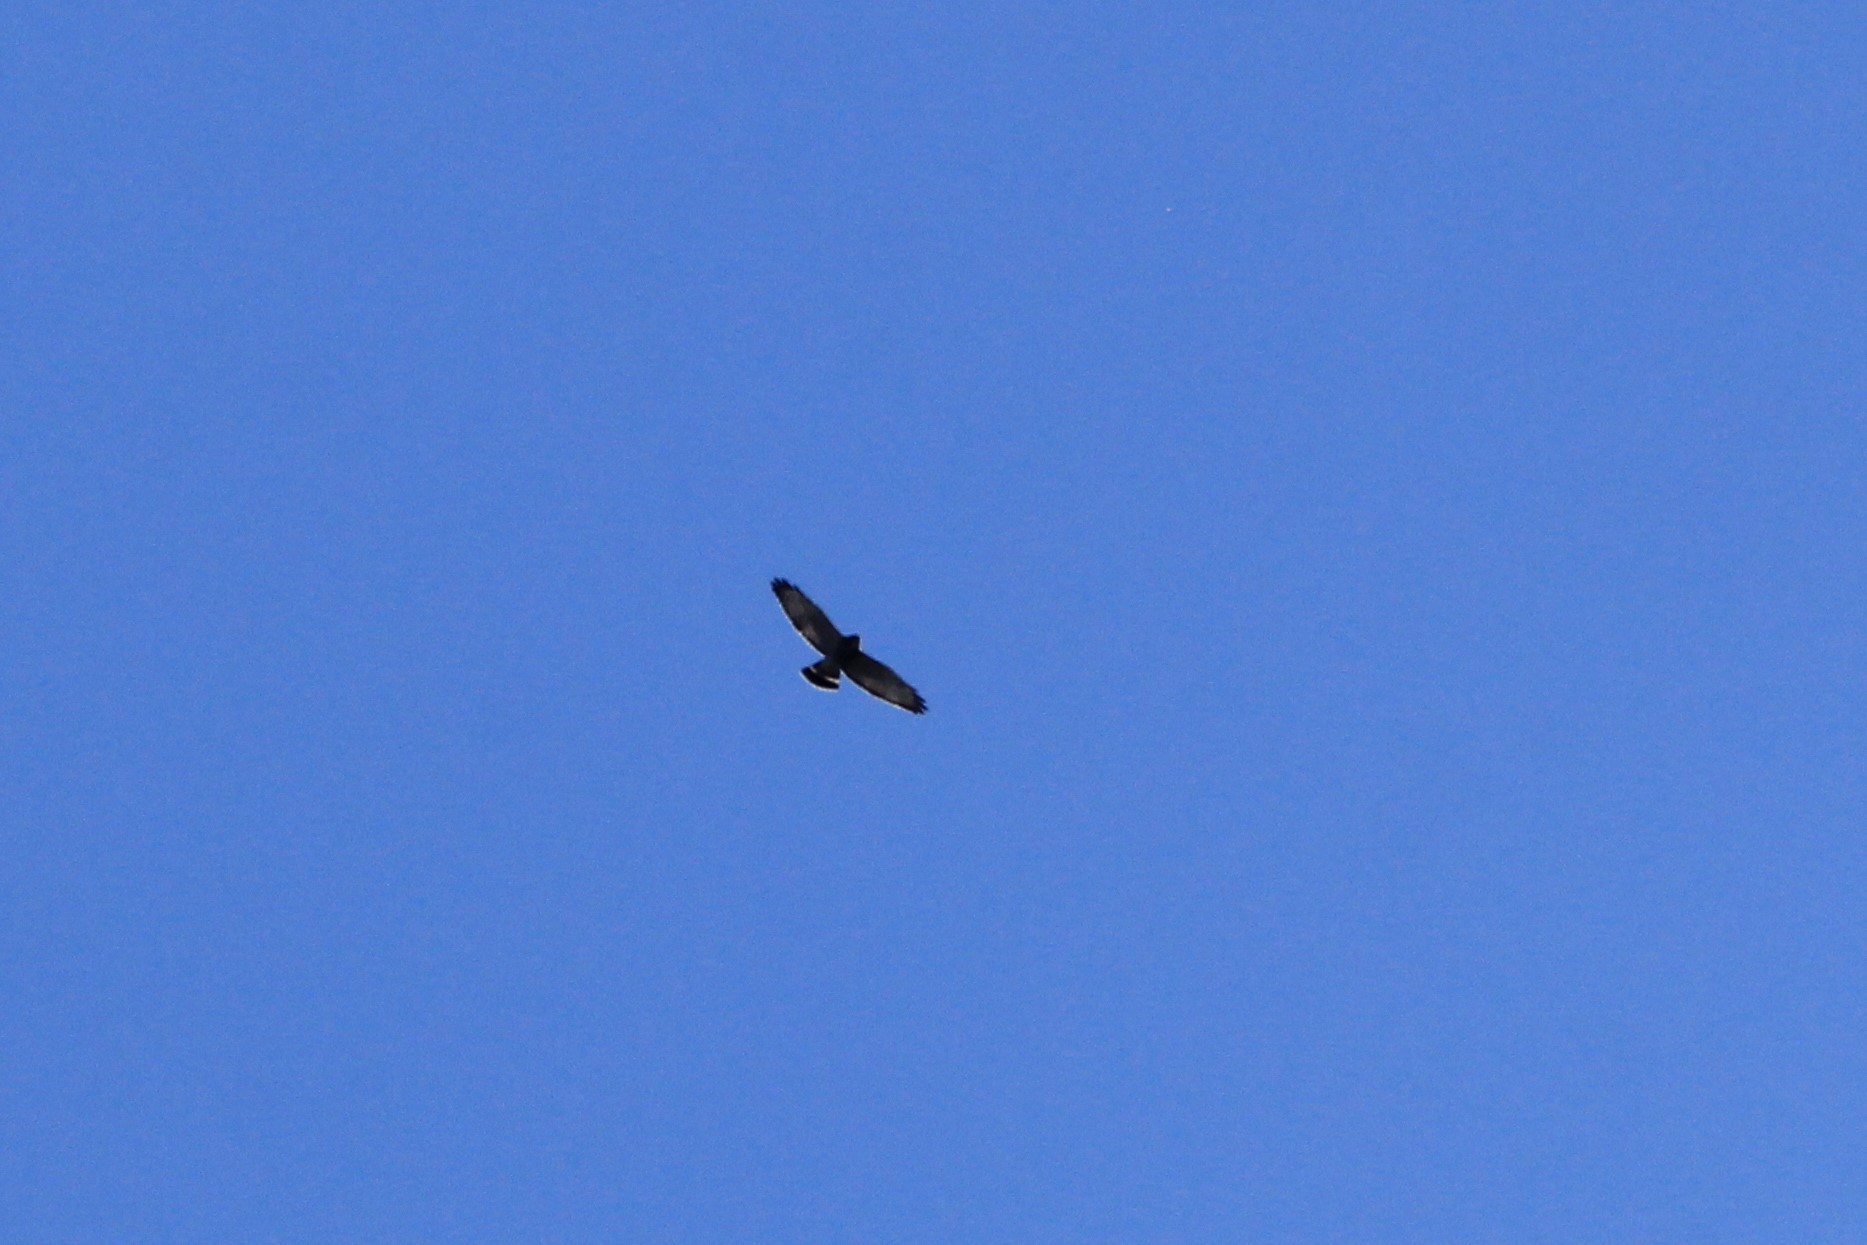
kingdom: Animalia
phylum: Chordata
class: Aves
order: Accipitriformes
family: Accipitridae
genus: Buteo
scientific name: Buteo platypterus
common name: Broad-winged hawk
